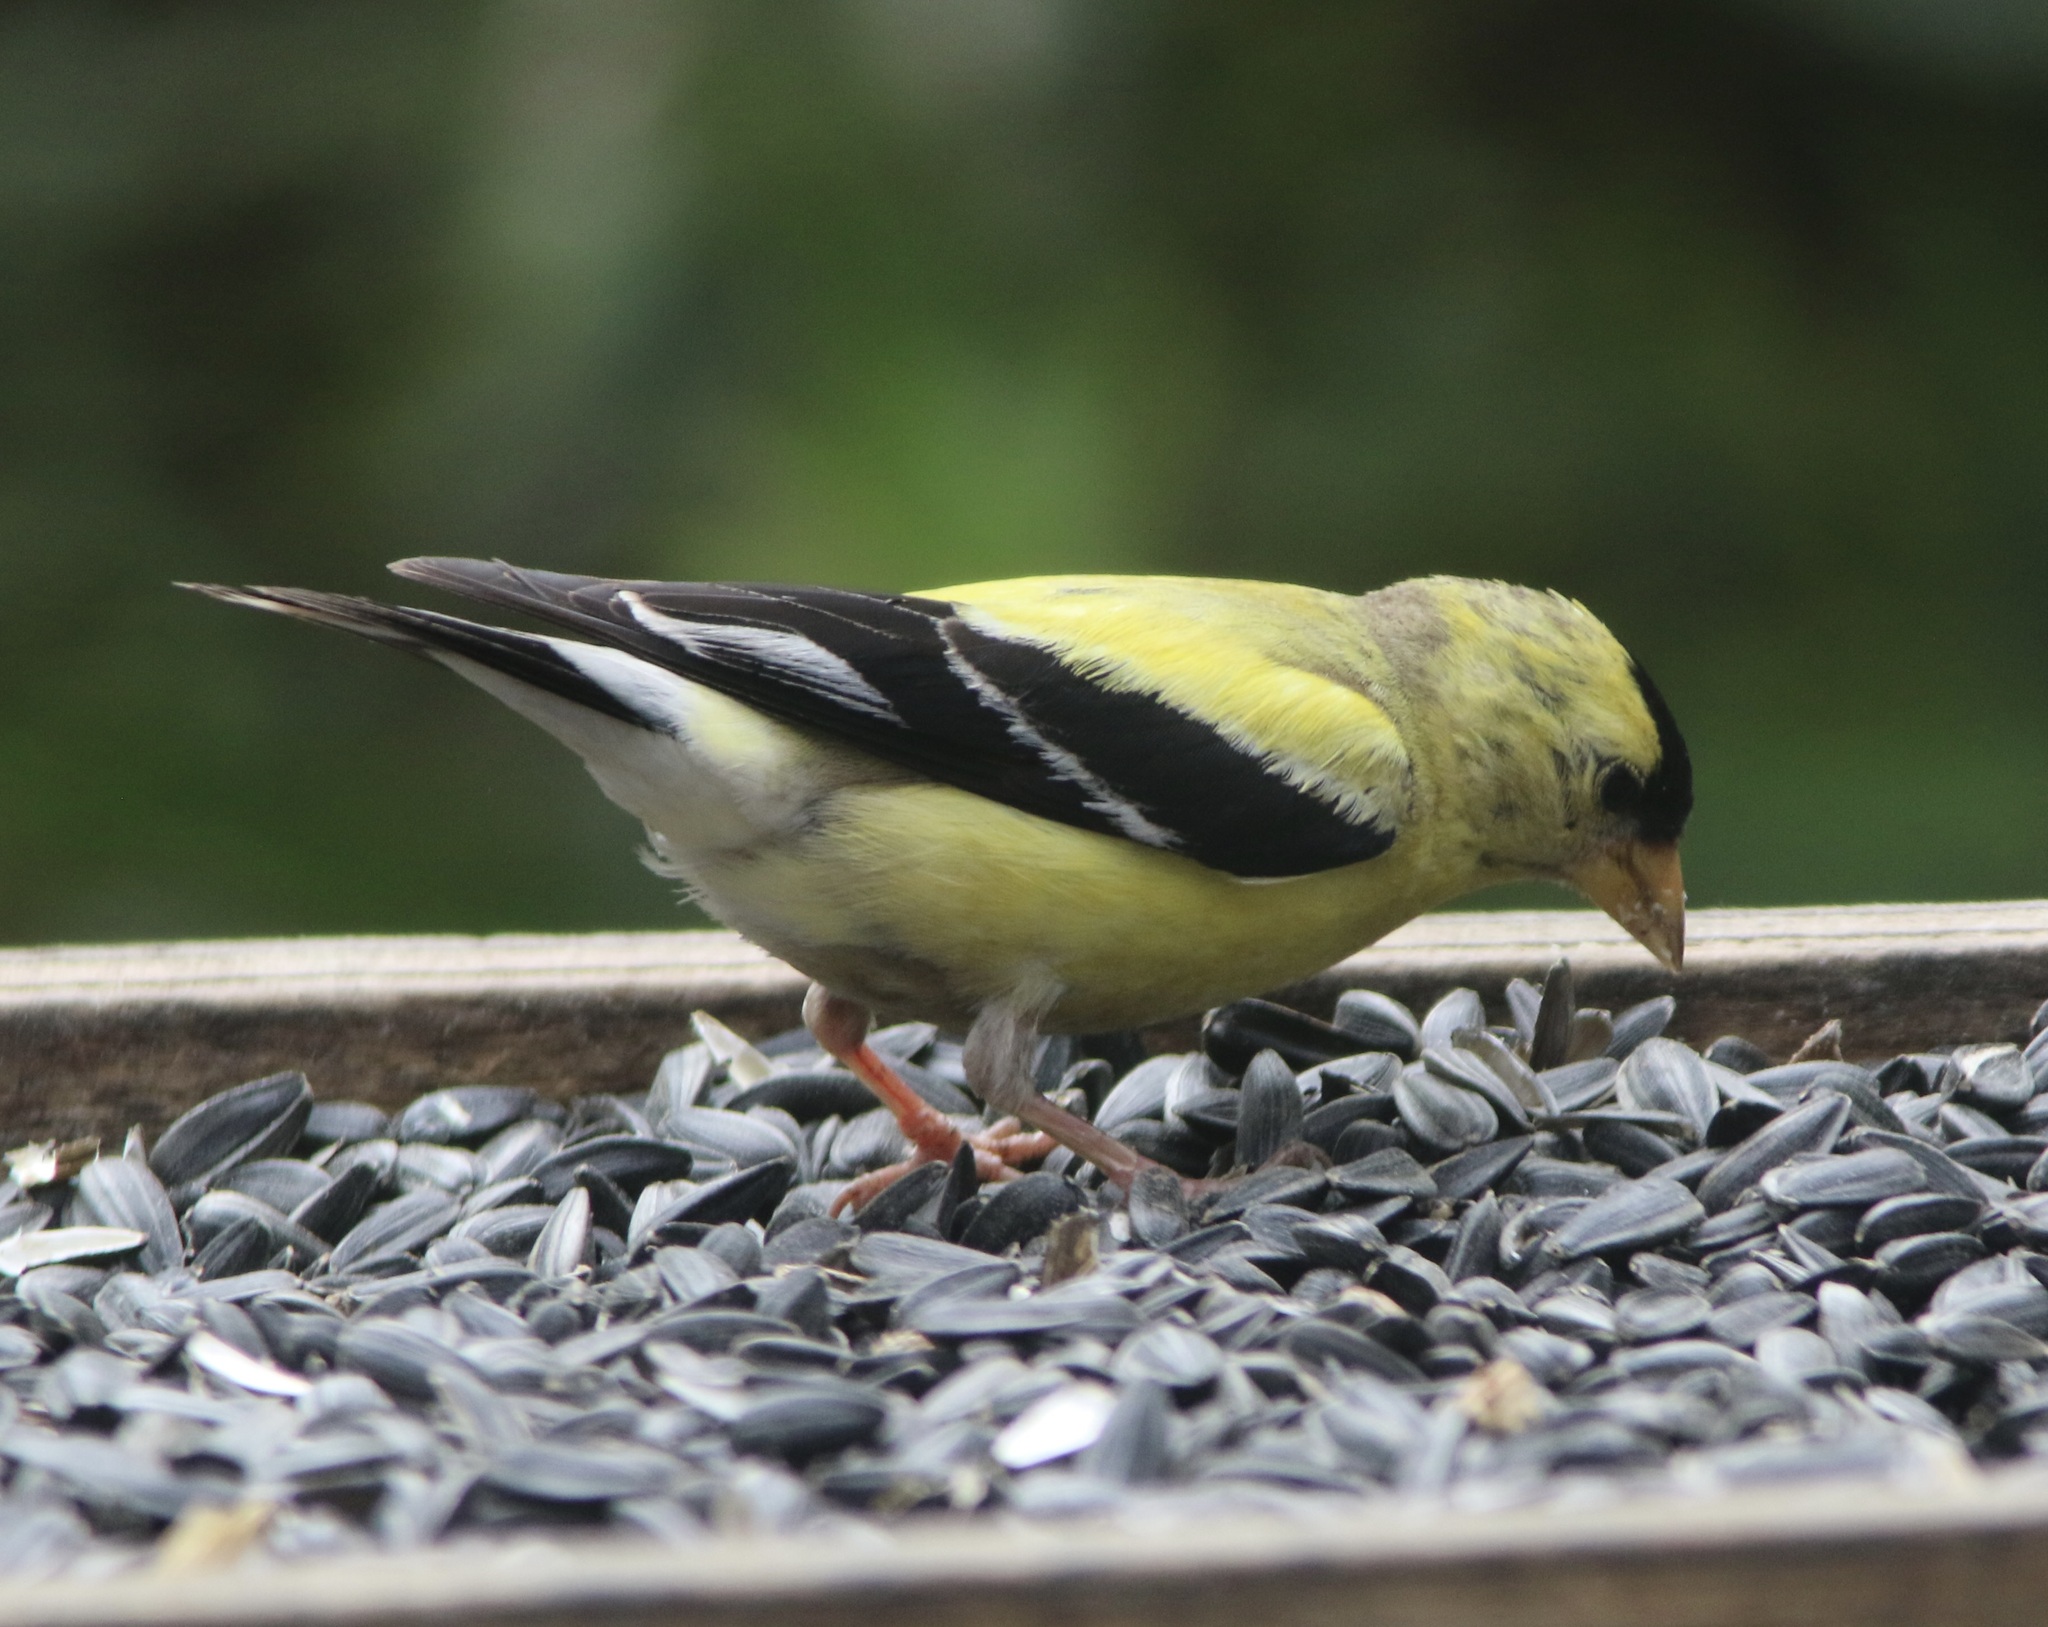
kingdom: Animalia
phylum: Chordata
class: Aves
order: Passeriformes
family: Fringillidae
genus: Spinus
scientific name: Spinus tristis
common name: American goldfinch
